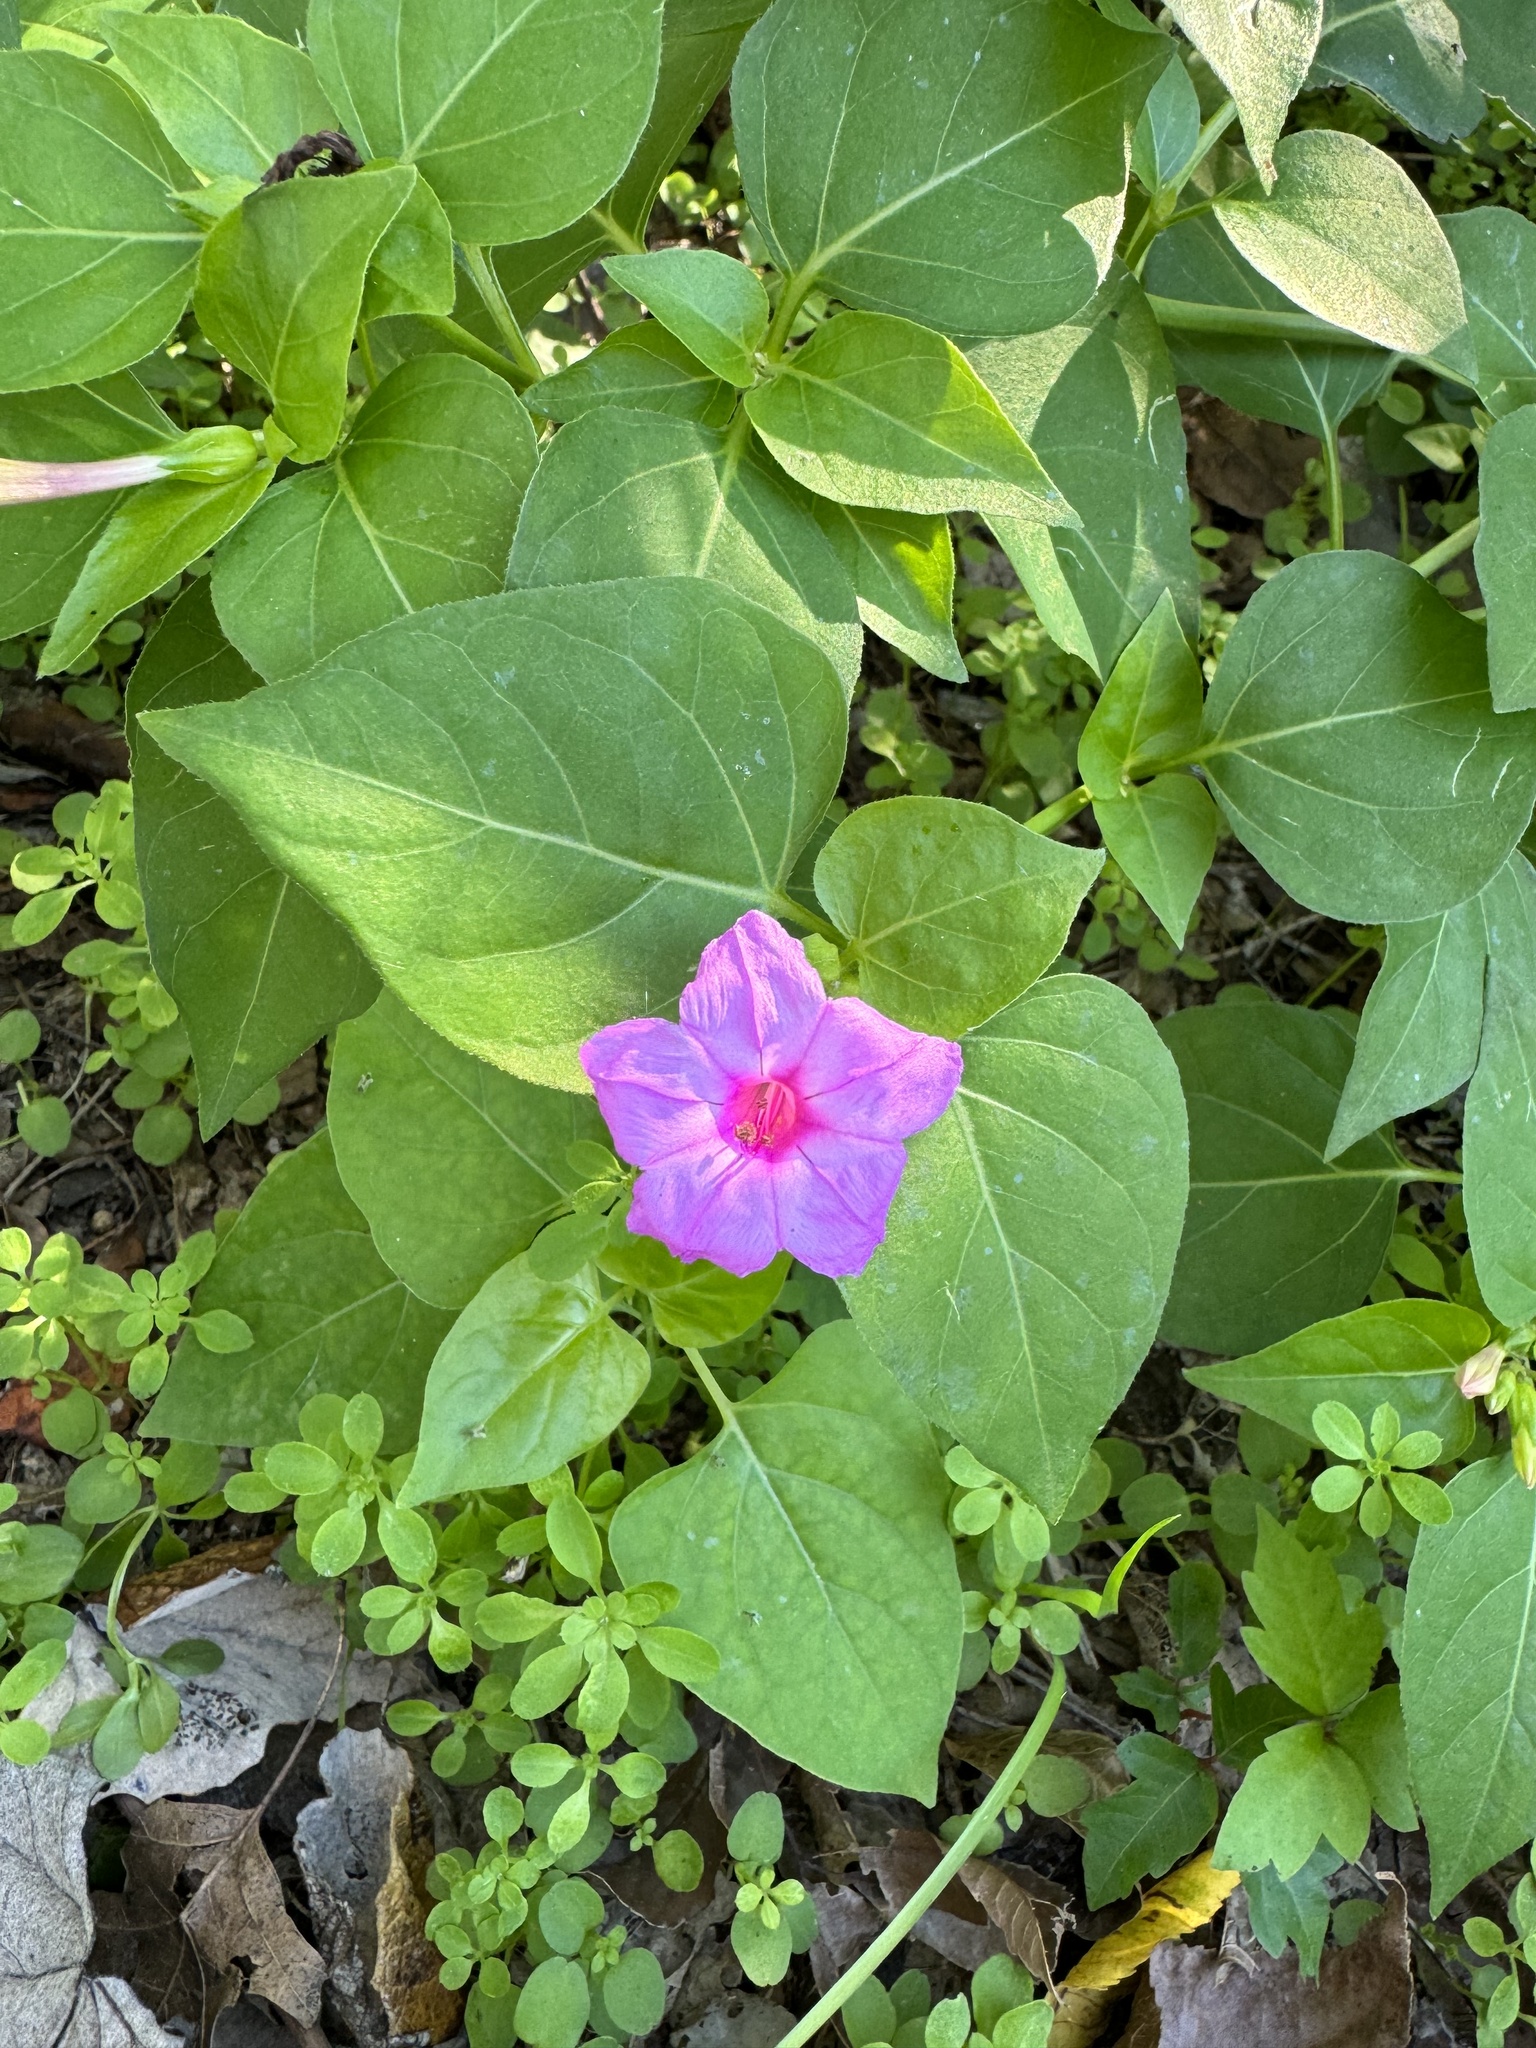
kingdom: Plantae
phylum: Tracheophyta
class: Magnoliopsida
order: Caryophyllales
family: Nyctaginaceae
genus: Mirabilis
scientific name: Mirabilis jalapa
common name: Marvel-of-peru
